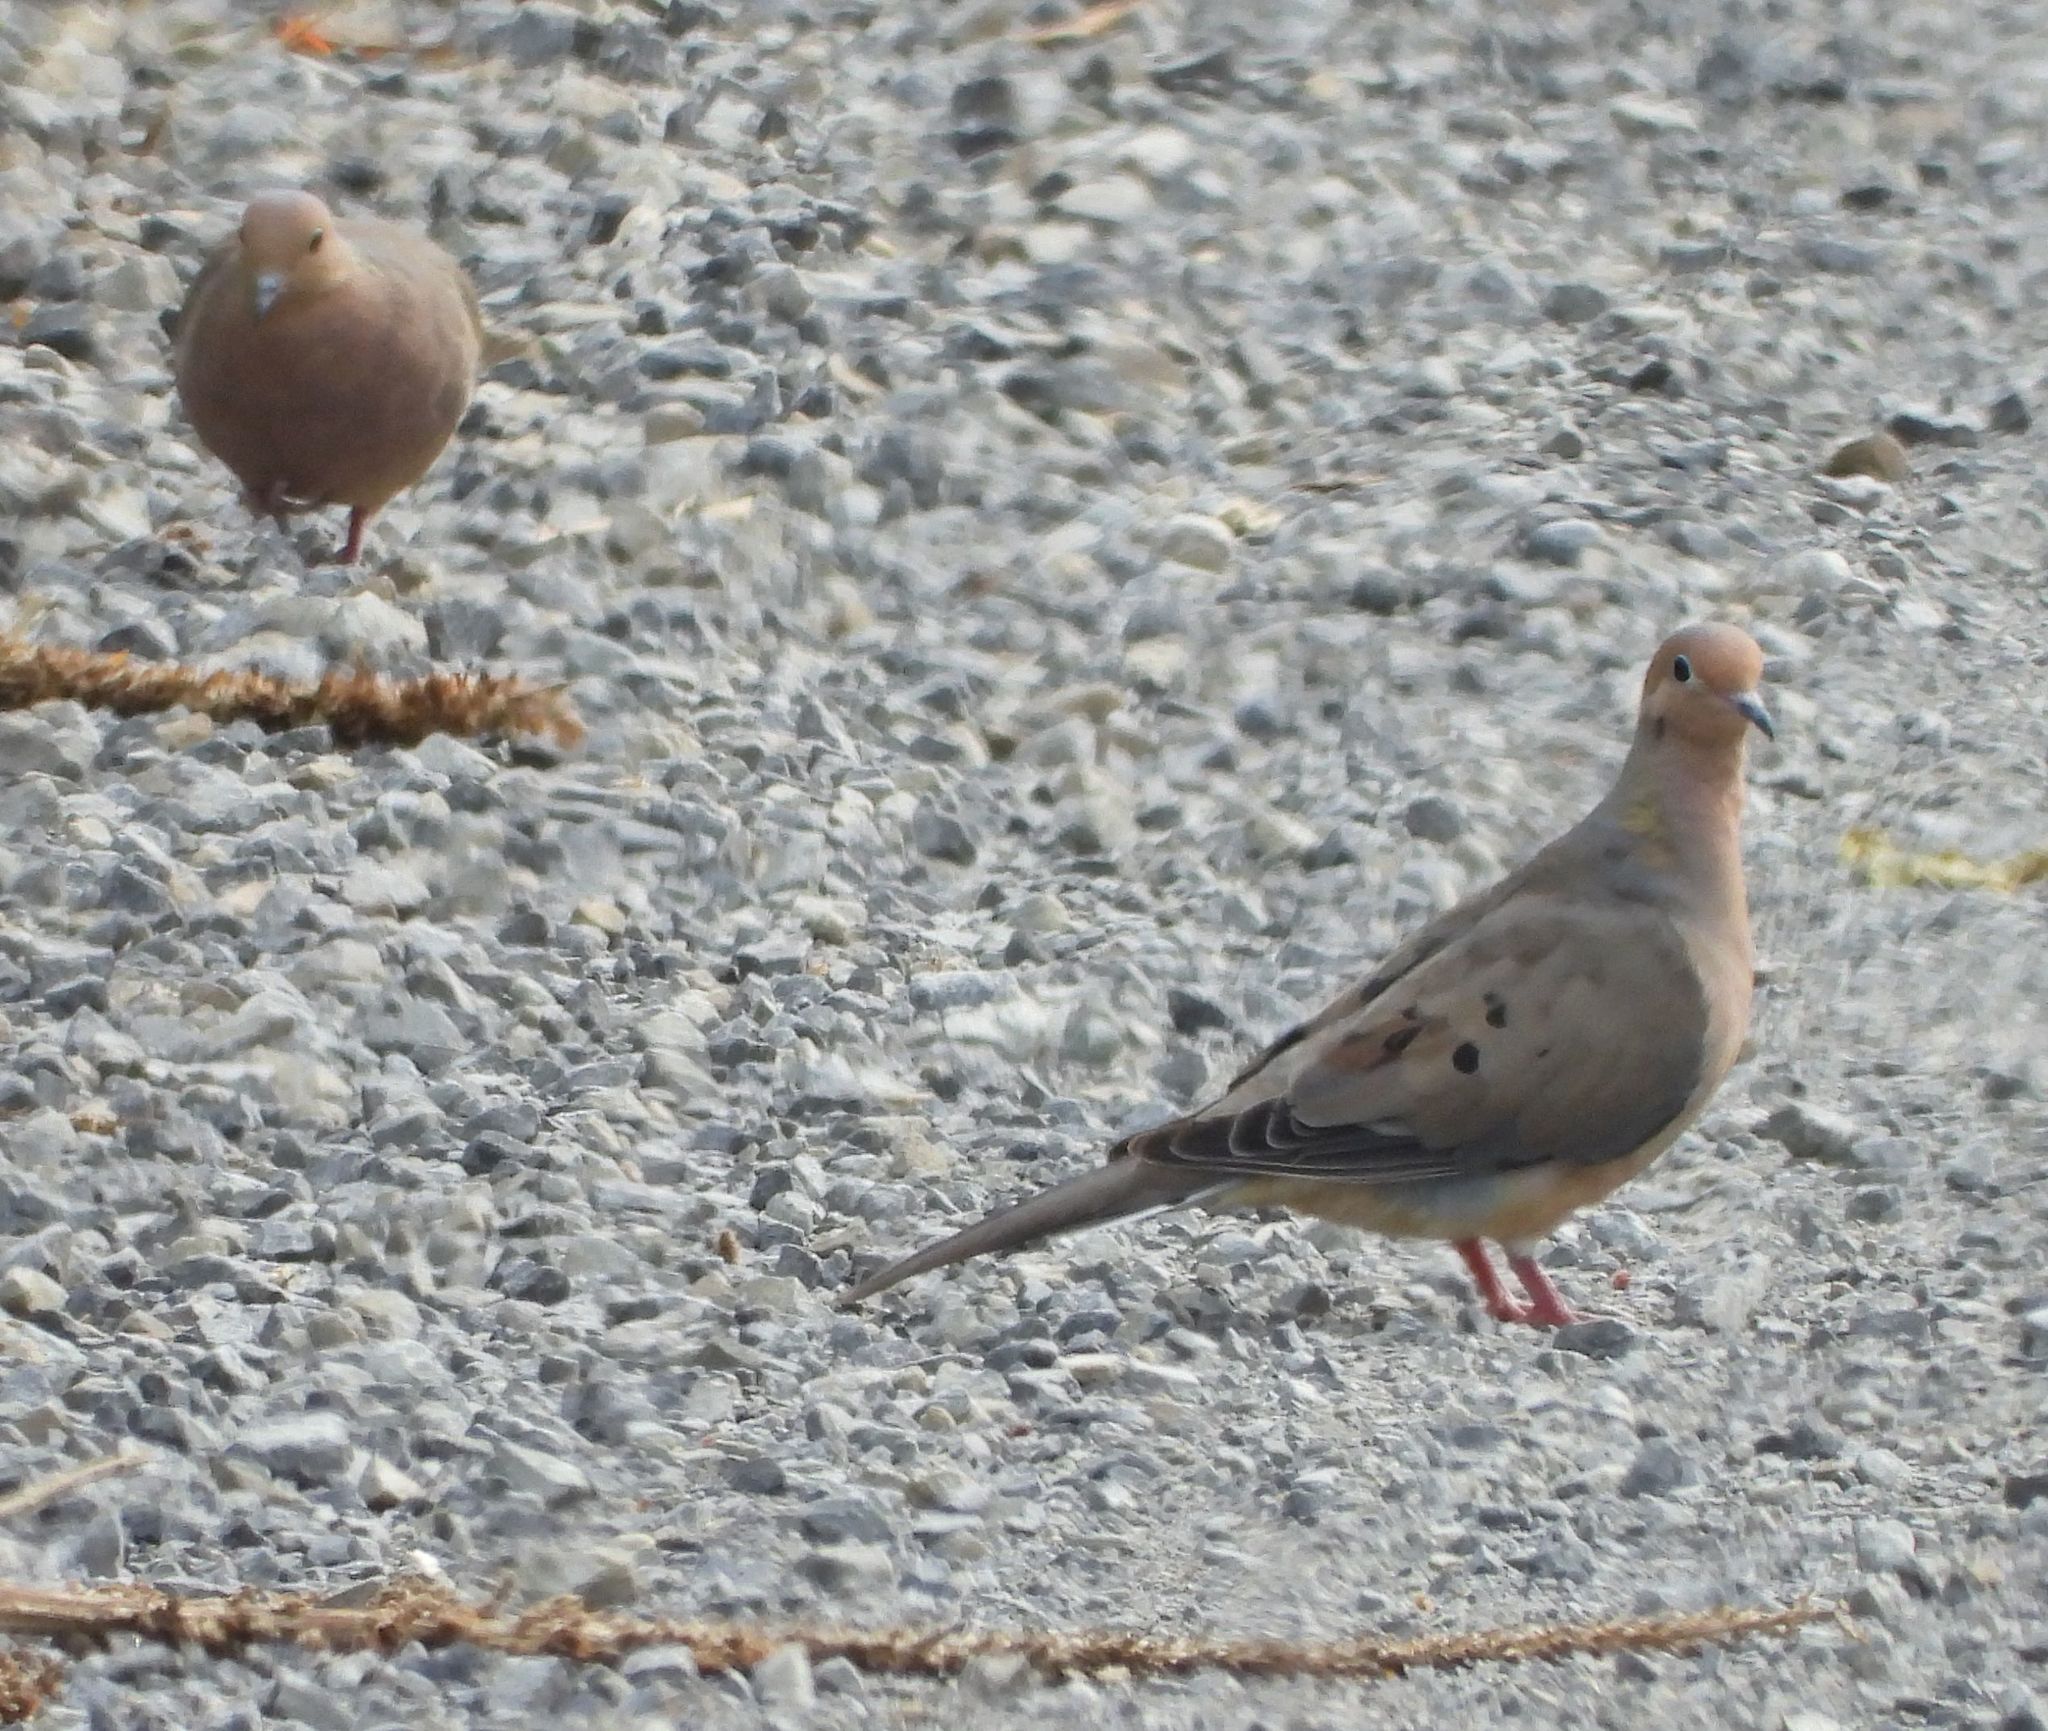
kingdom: Animalia
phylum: Chordata
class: Aves
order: Columbiformes
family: Columbidae
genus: Zenaida
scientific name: Zenaida macroura
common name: Mourning dove
